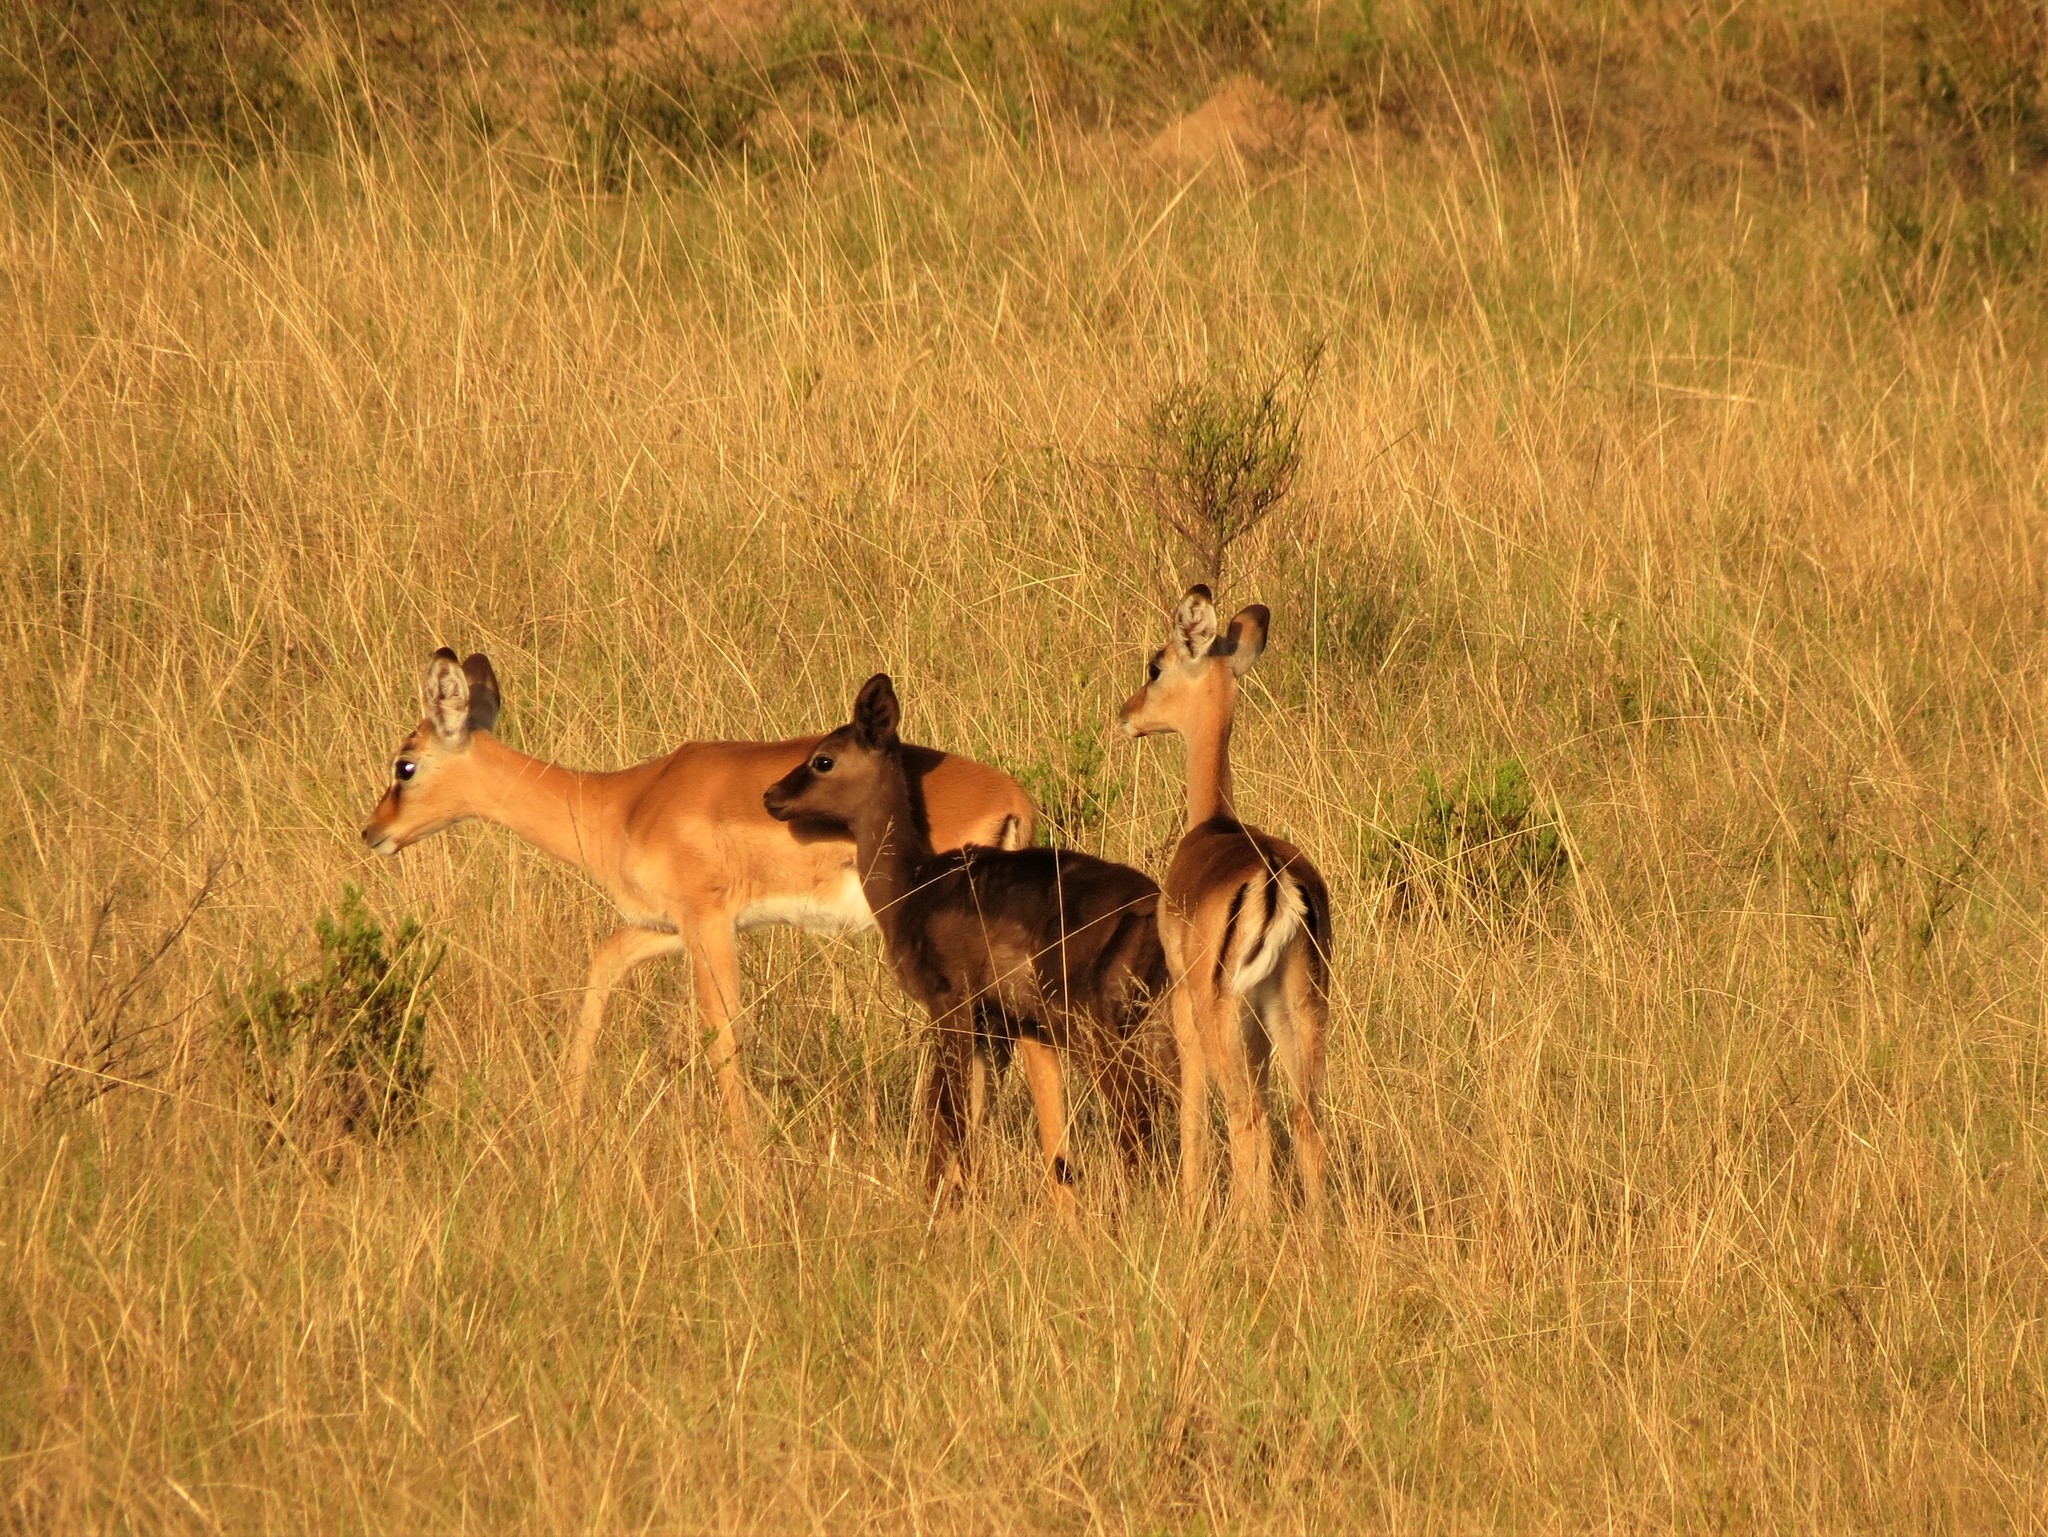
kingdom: Animalia
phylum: Chordata
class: Mammalia
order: Artiodactyla
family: Bovidae
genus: Aepyceros
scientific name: Aepyceros melampus
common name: Impala
